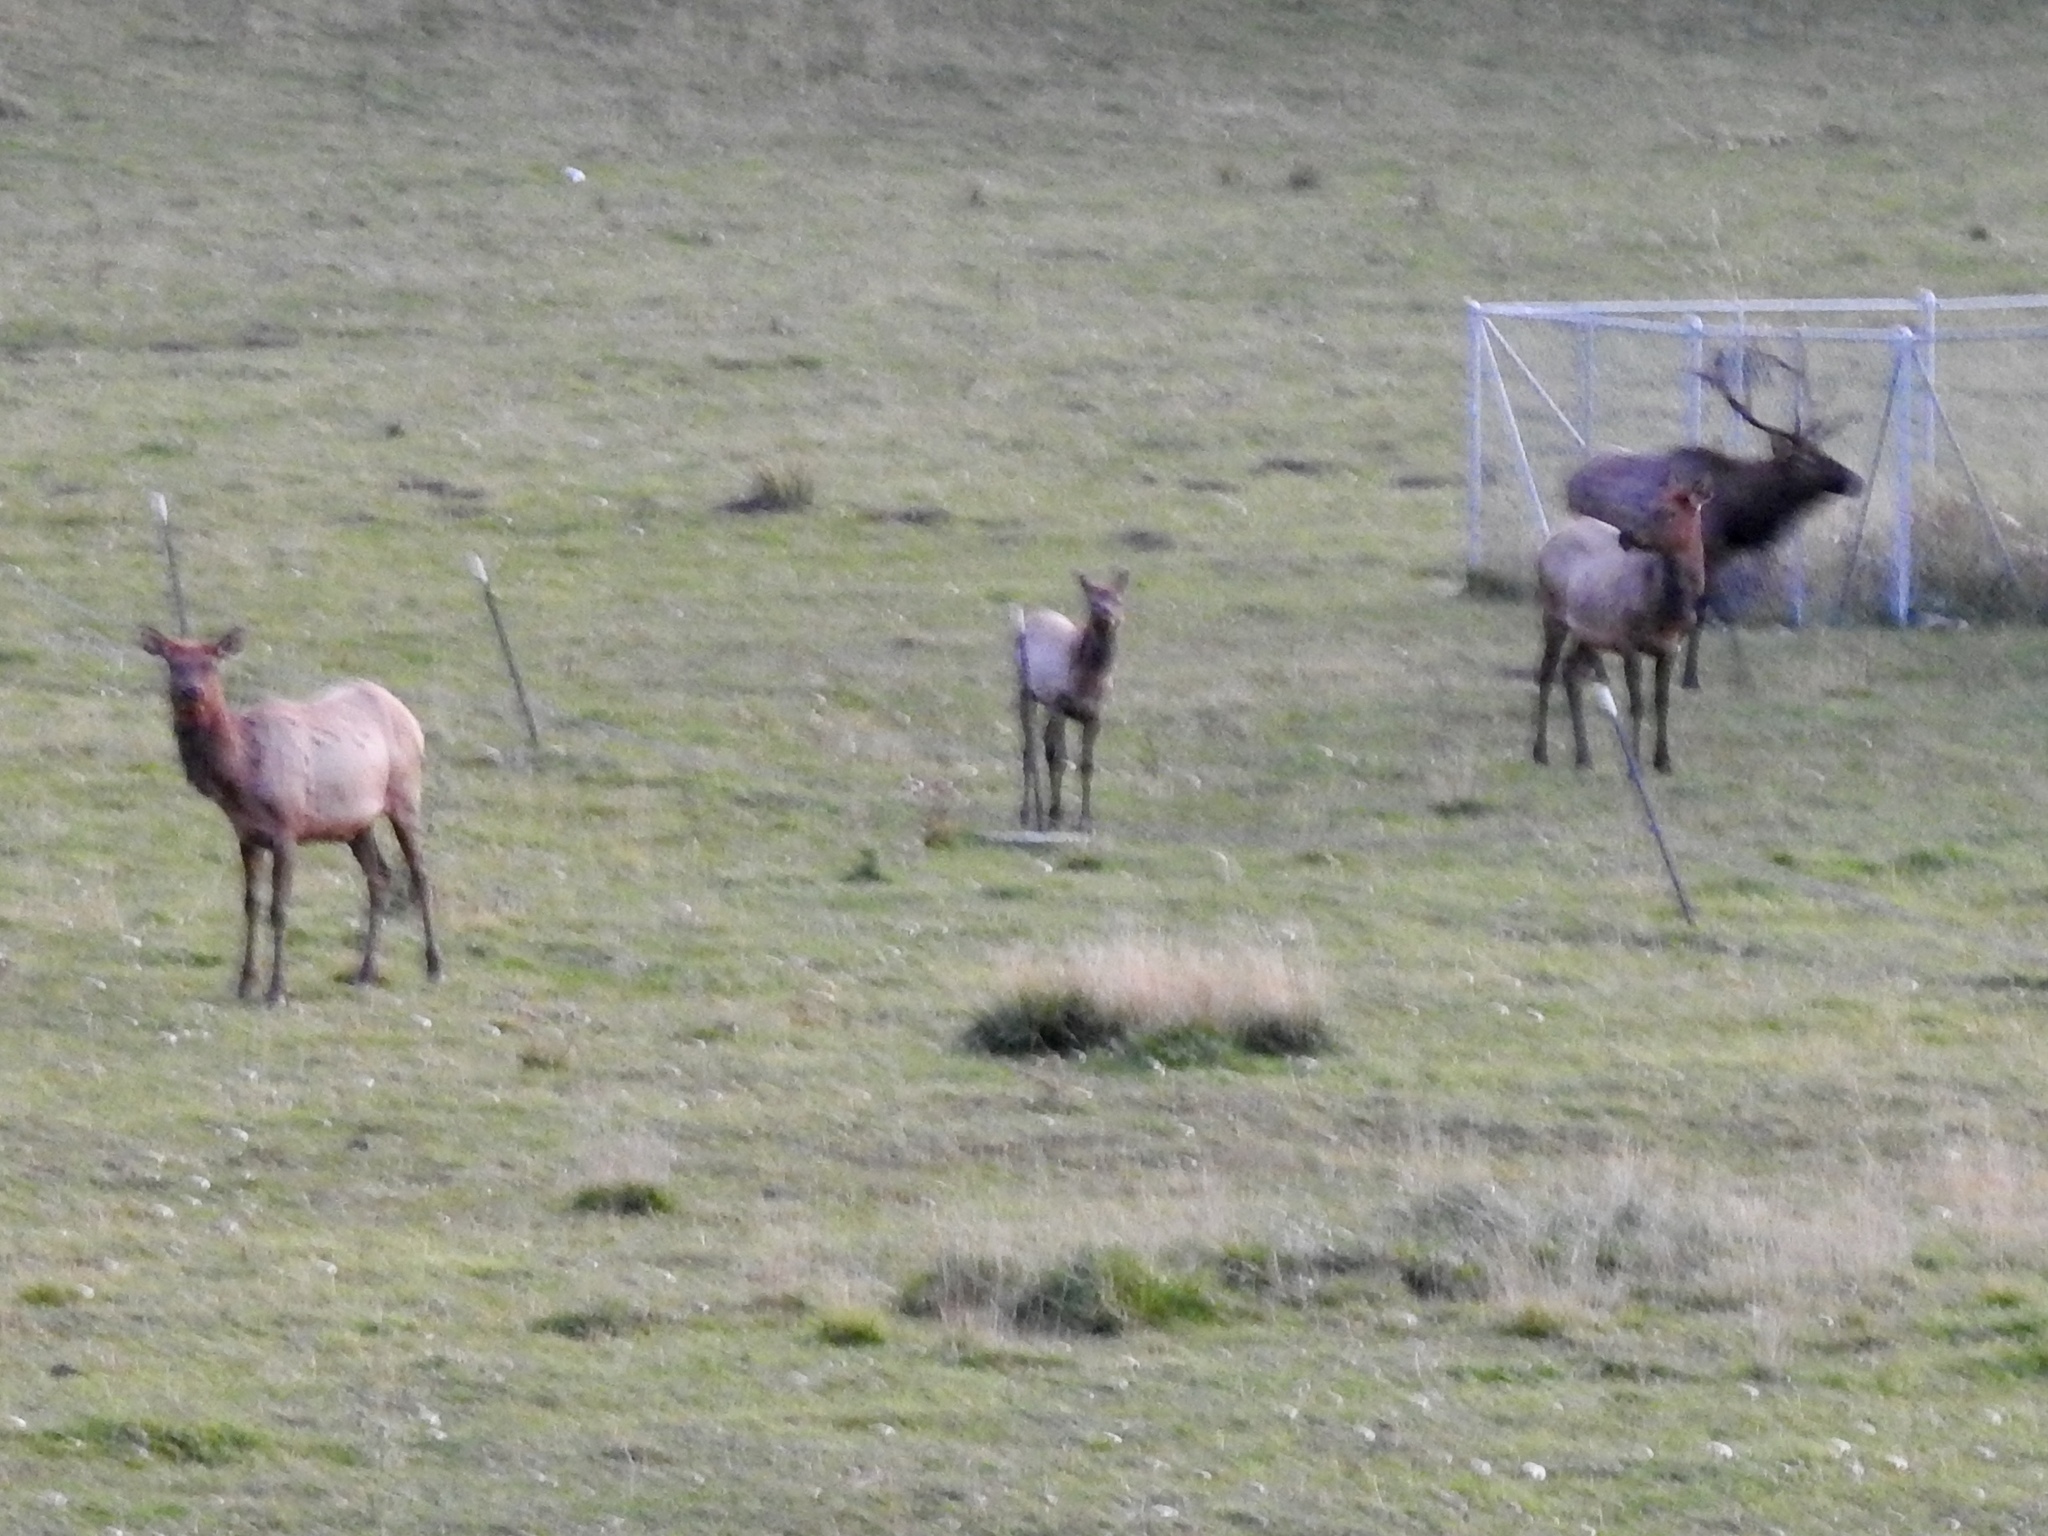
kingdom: Animalia
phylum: Chordata
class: Mammalia
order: Artiodactyla
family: Cervidae
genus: Cervus
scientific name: Cervus elaphus
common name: Red deer
